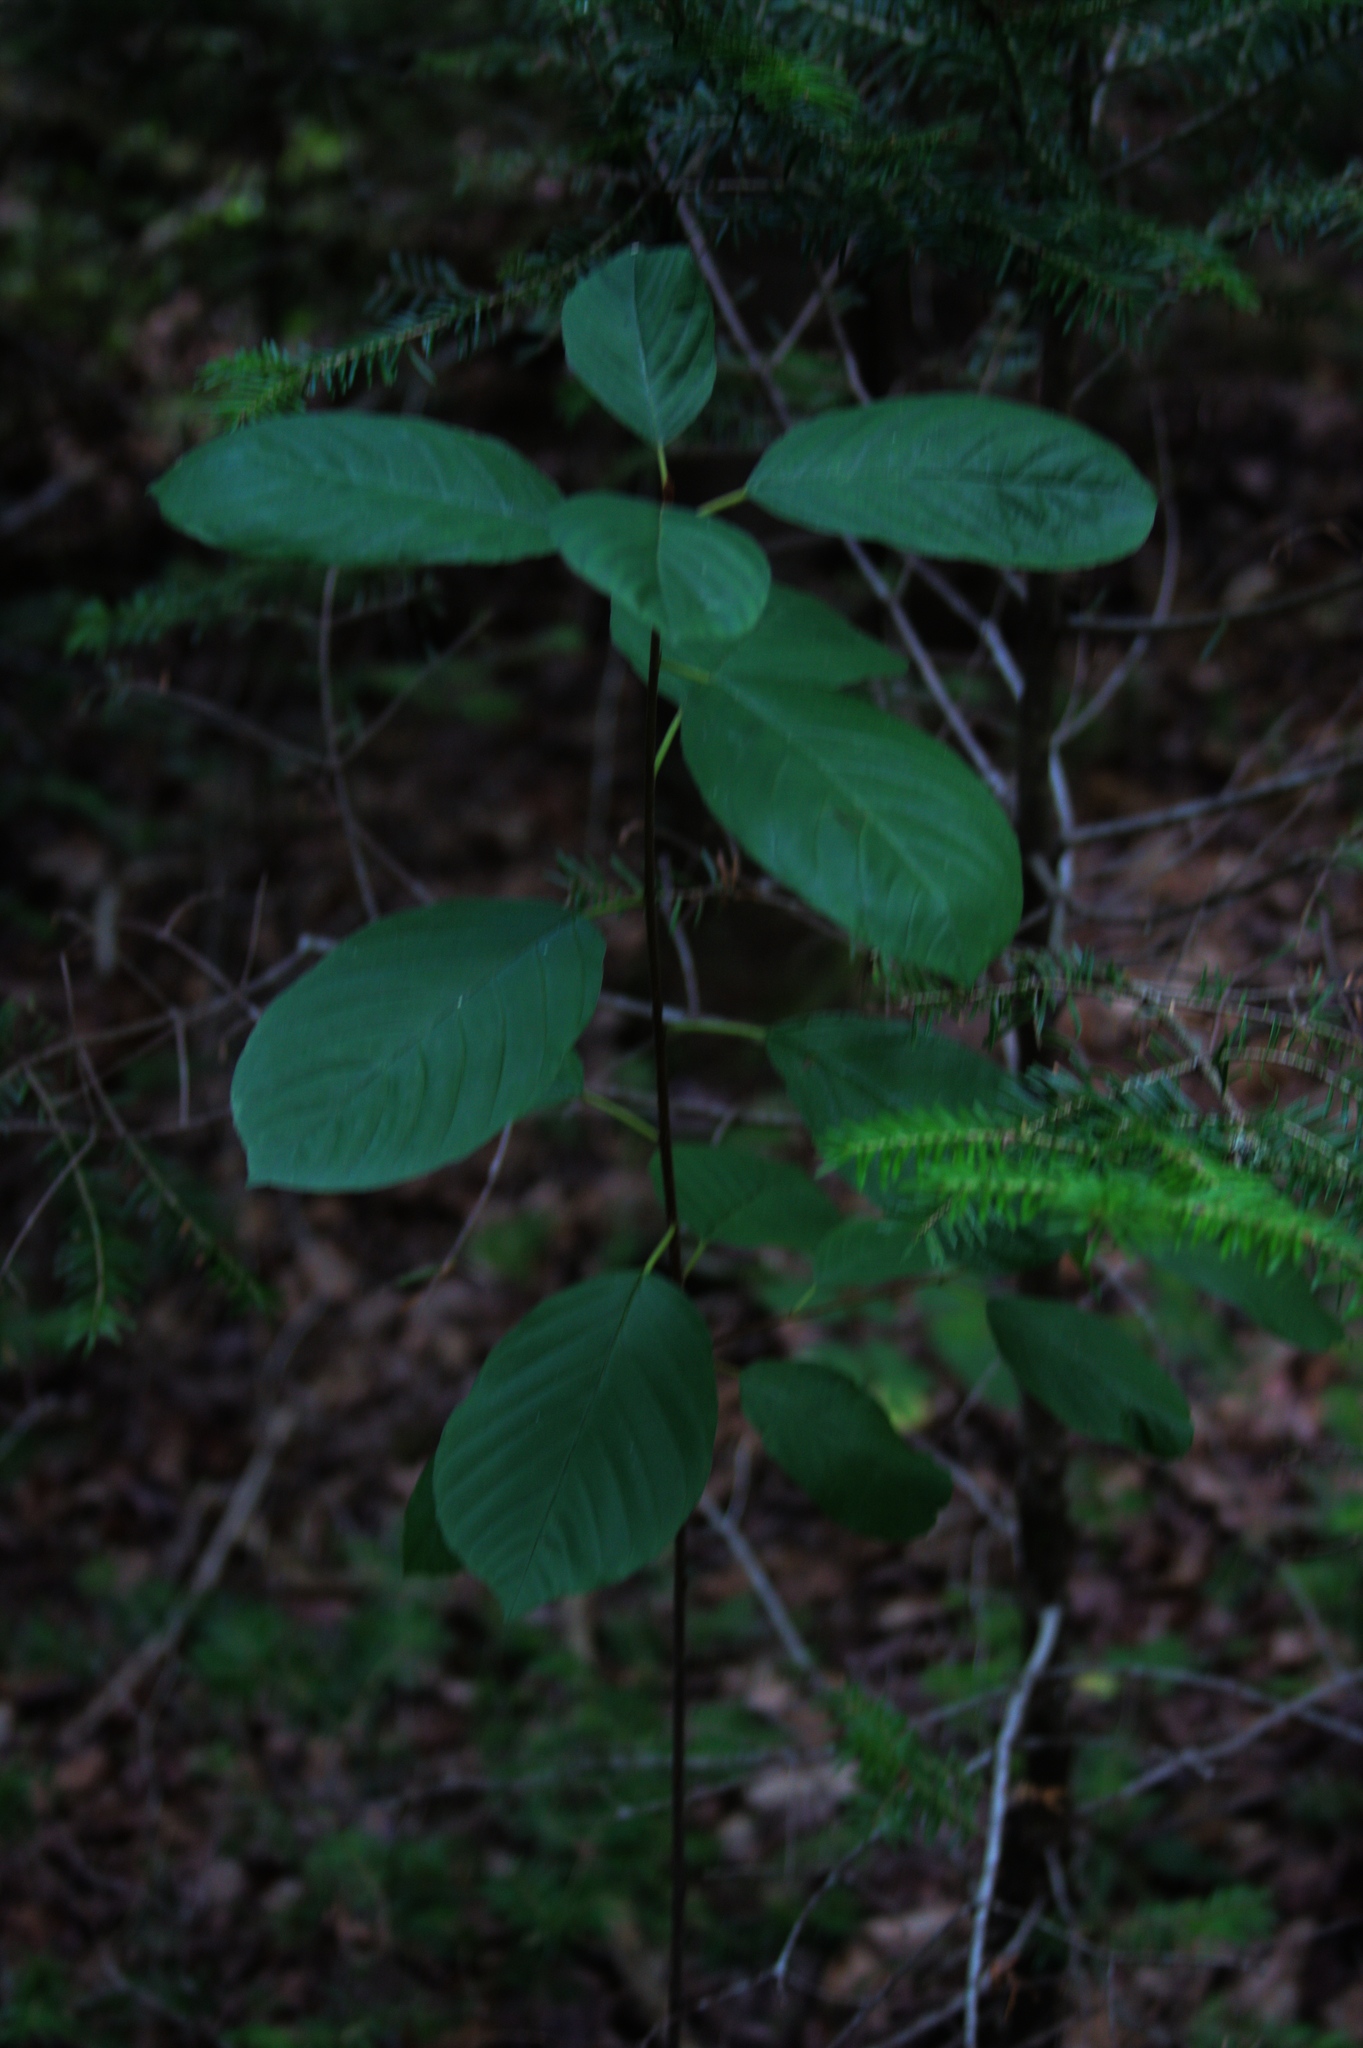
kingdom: Plantae
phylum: Tracheophyta
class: Magnoliopsida
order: Rosales
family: Rhamnaceae
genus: Frangula
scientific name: Frangula alnus
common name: Alder buckthorn
